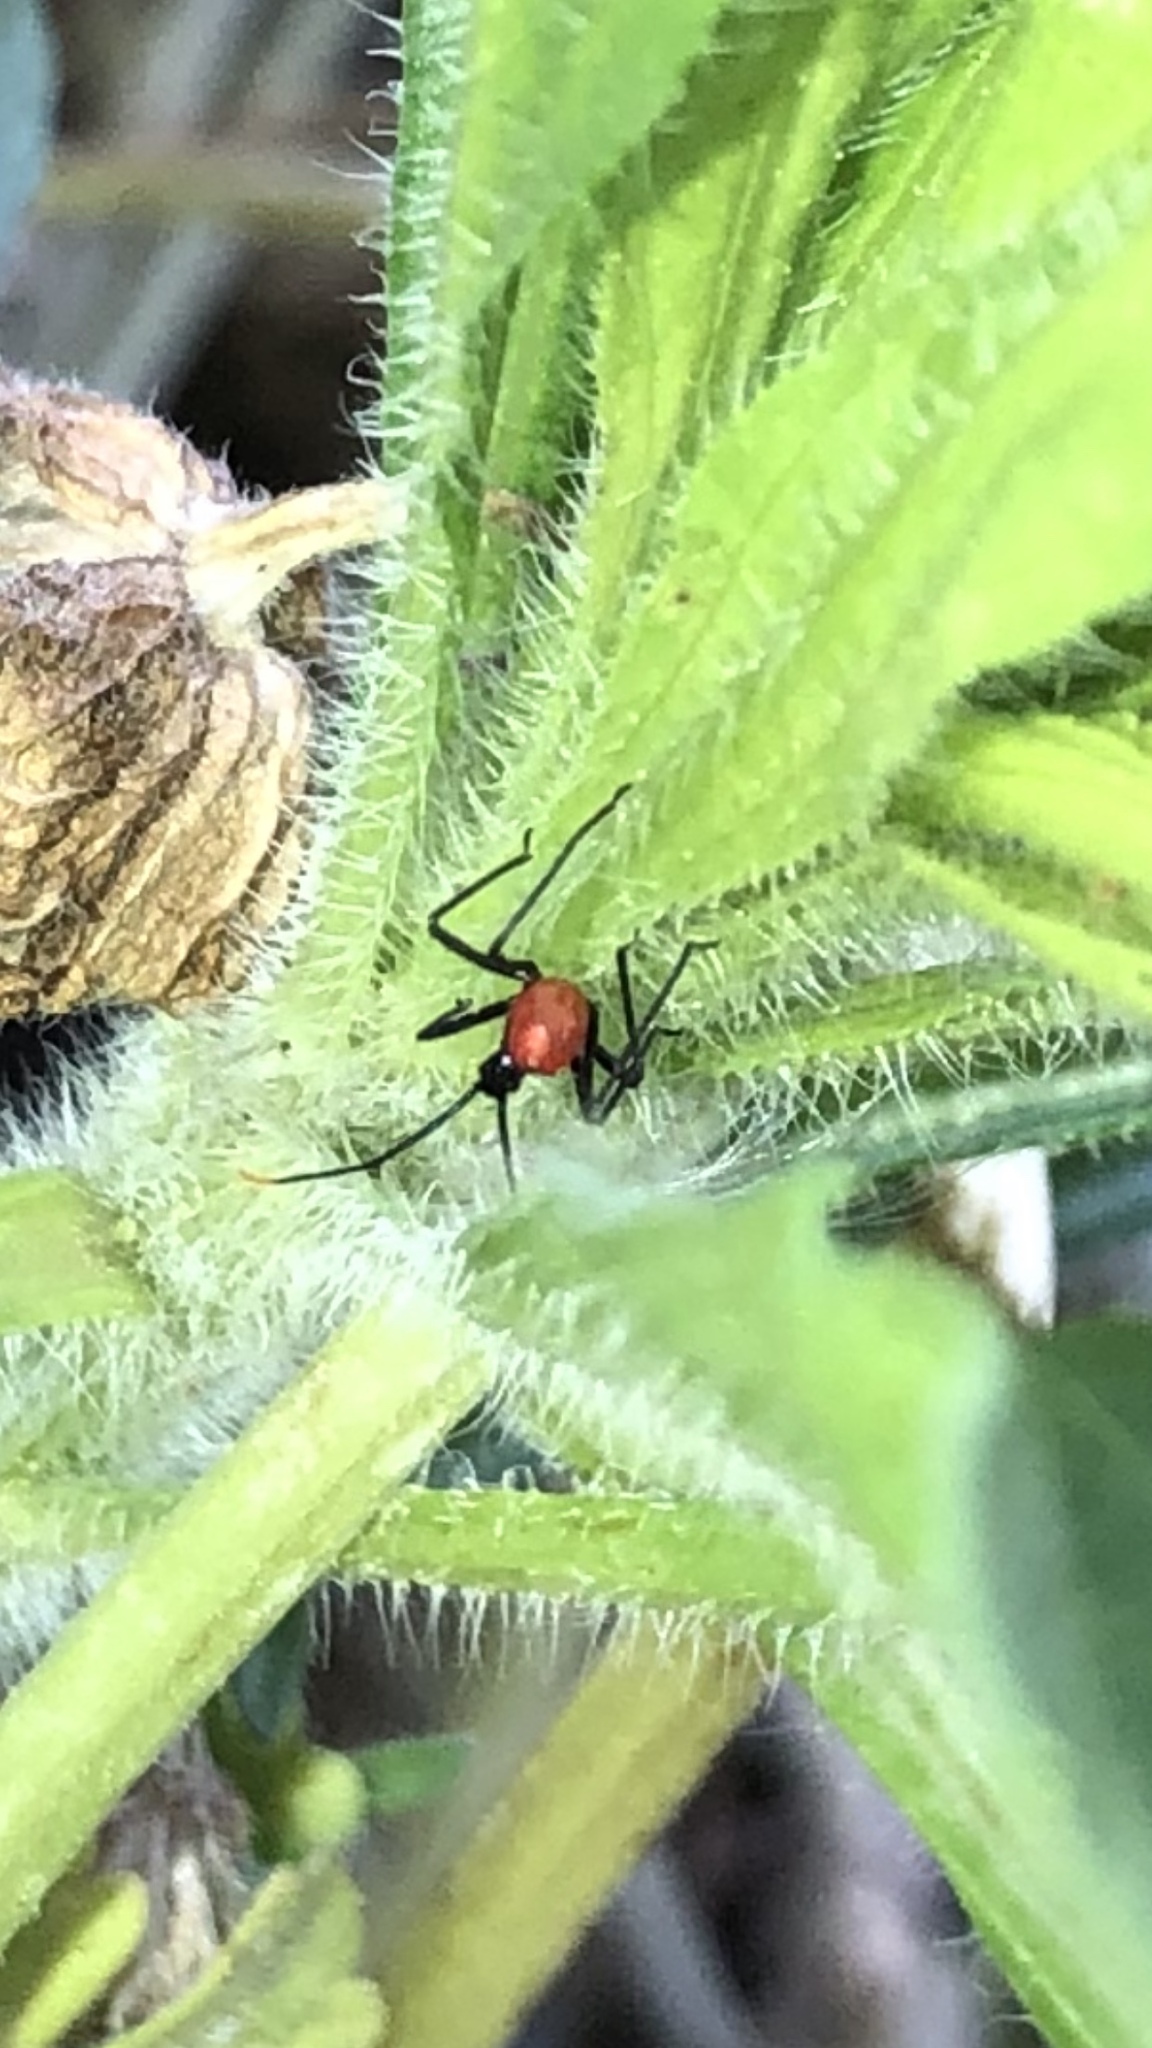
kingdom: Animalia
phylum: Arthropoda
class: Insecta
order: Hemiptera
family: Reduviidae
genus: Arilus
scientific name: Arilus cristatus
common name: North american wheel bug
